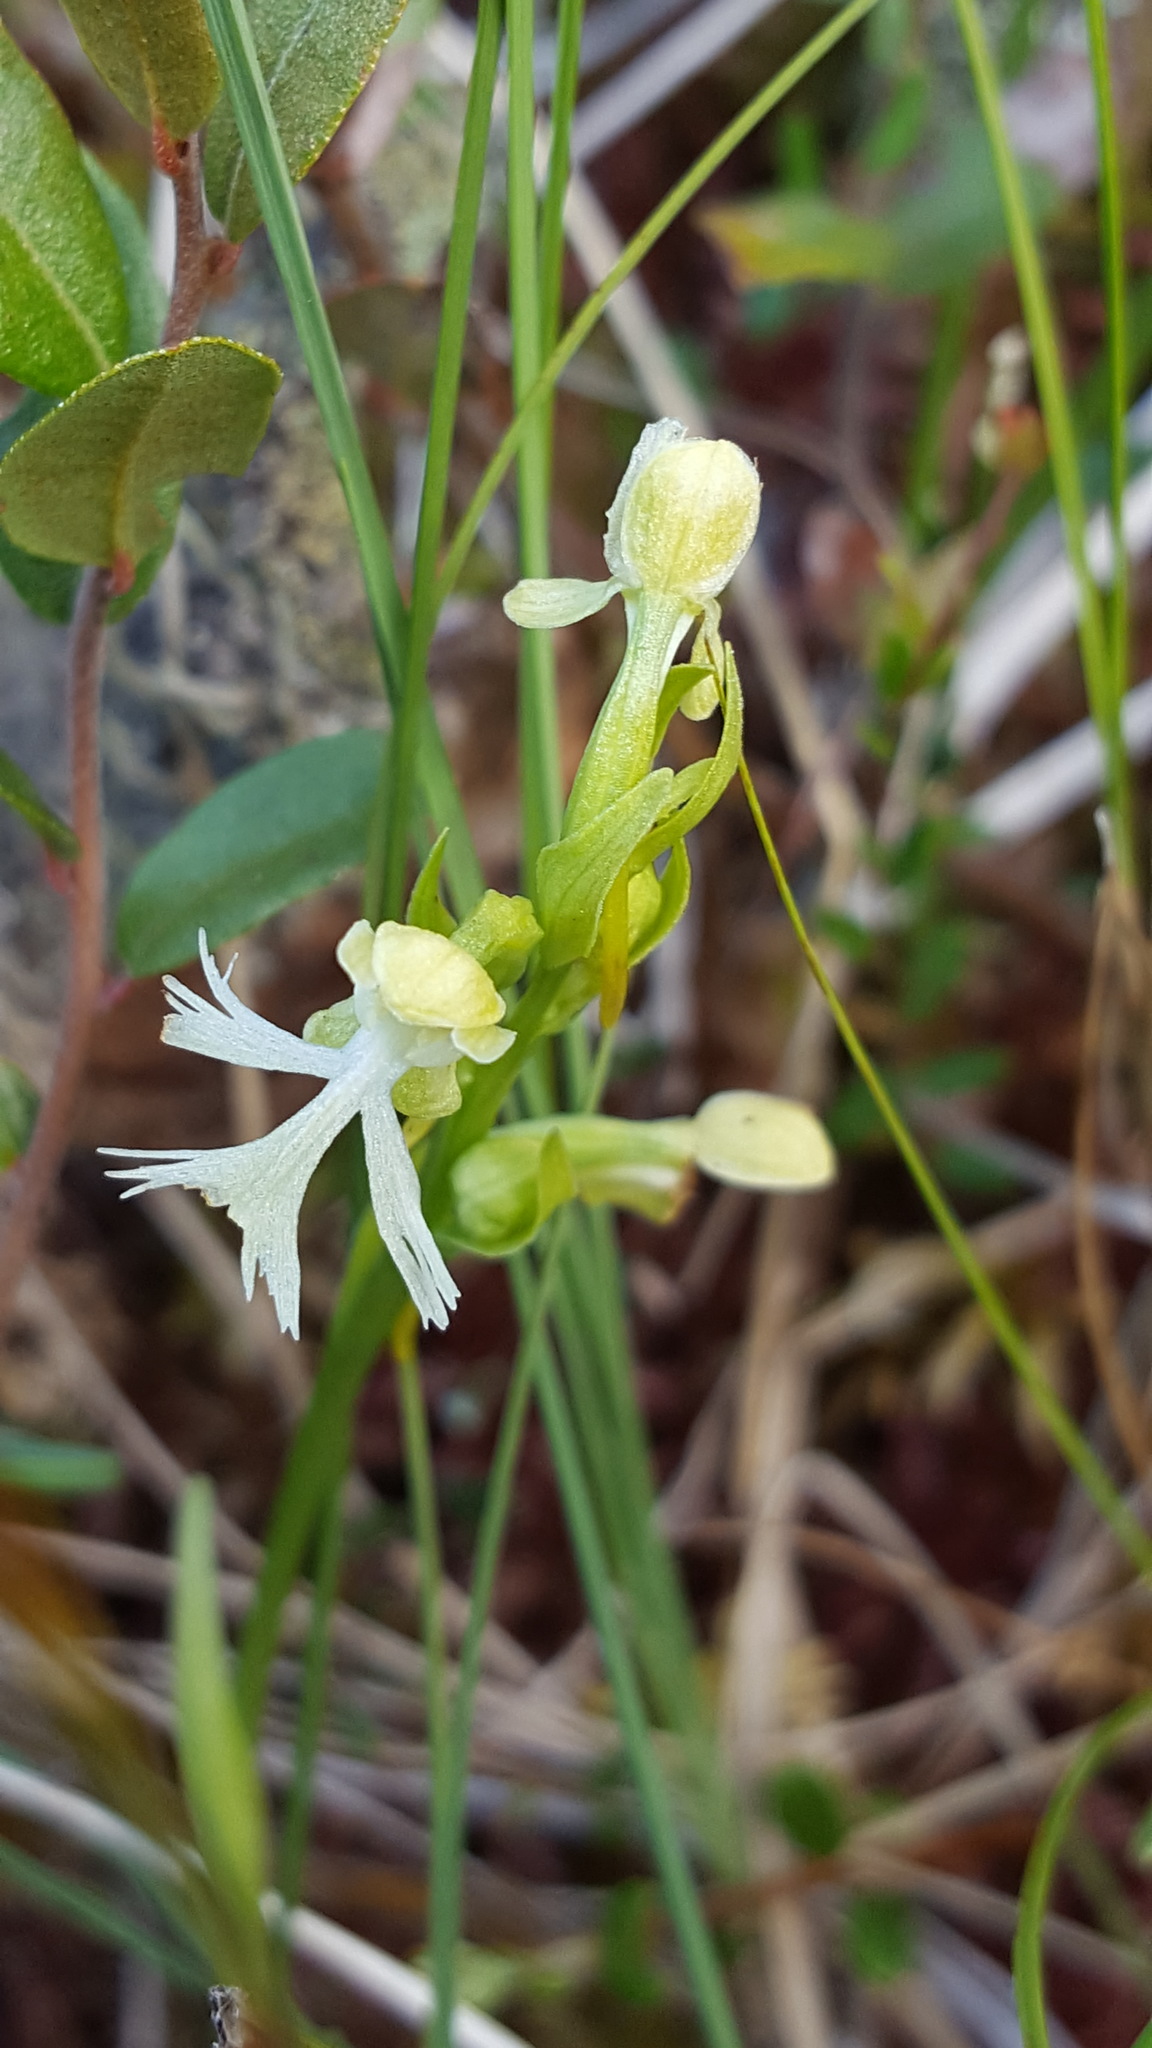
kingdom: Plantae
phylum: Tracheophyta
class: Liliopsida
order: Asparagales
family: Orchidaceae
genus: Platanthera
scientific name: Platanthera lacera
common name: Green fringed orchid
